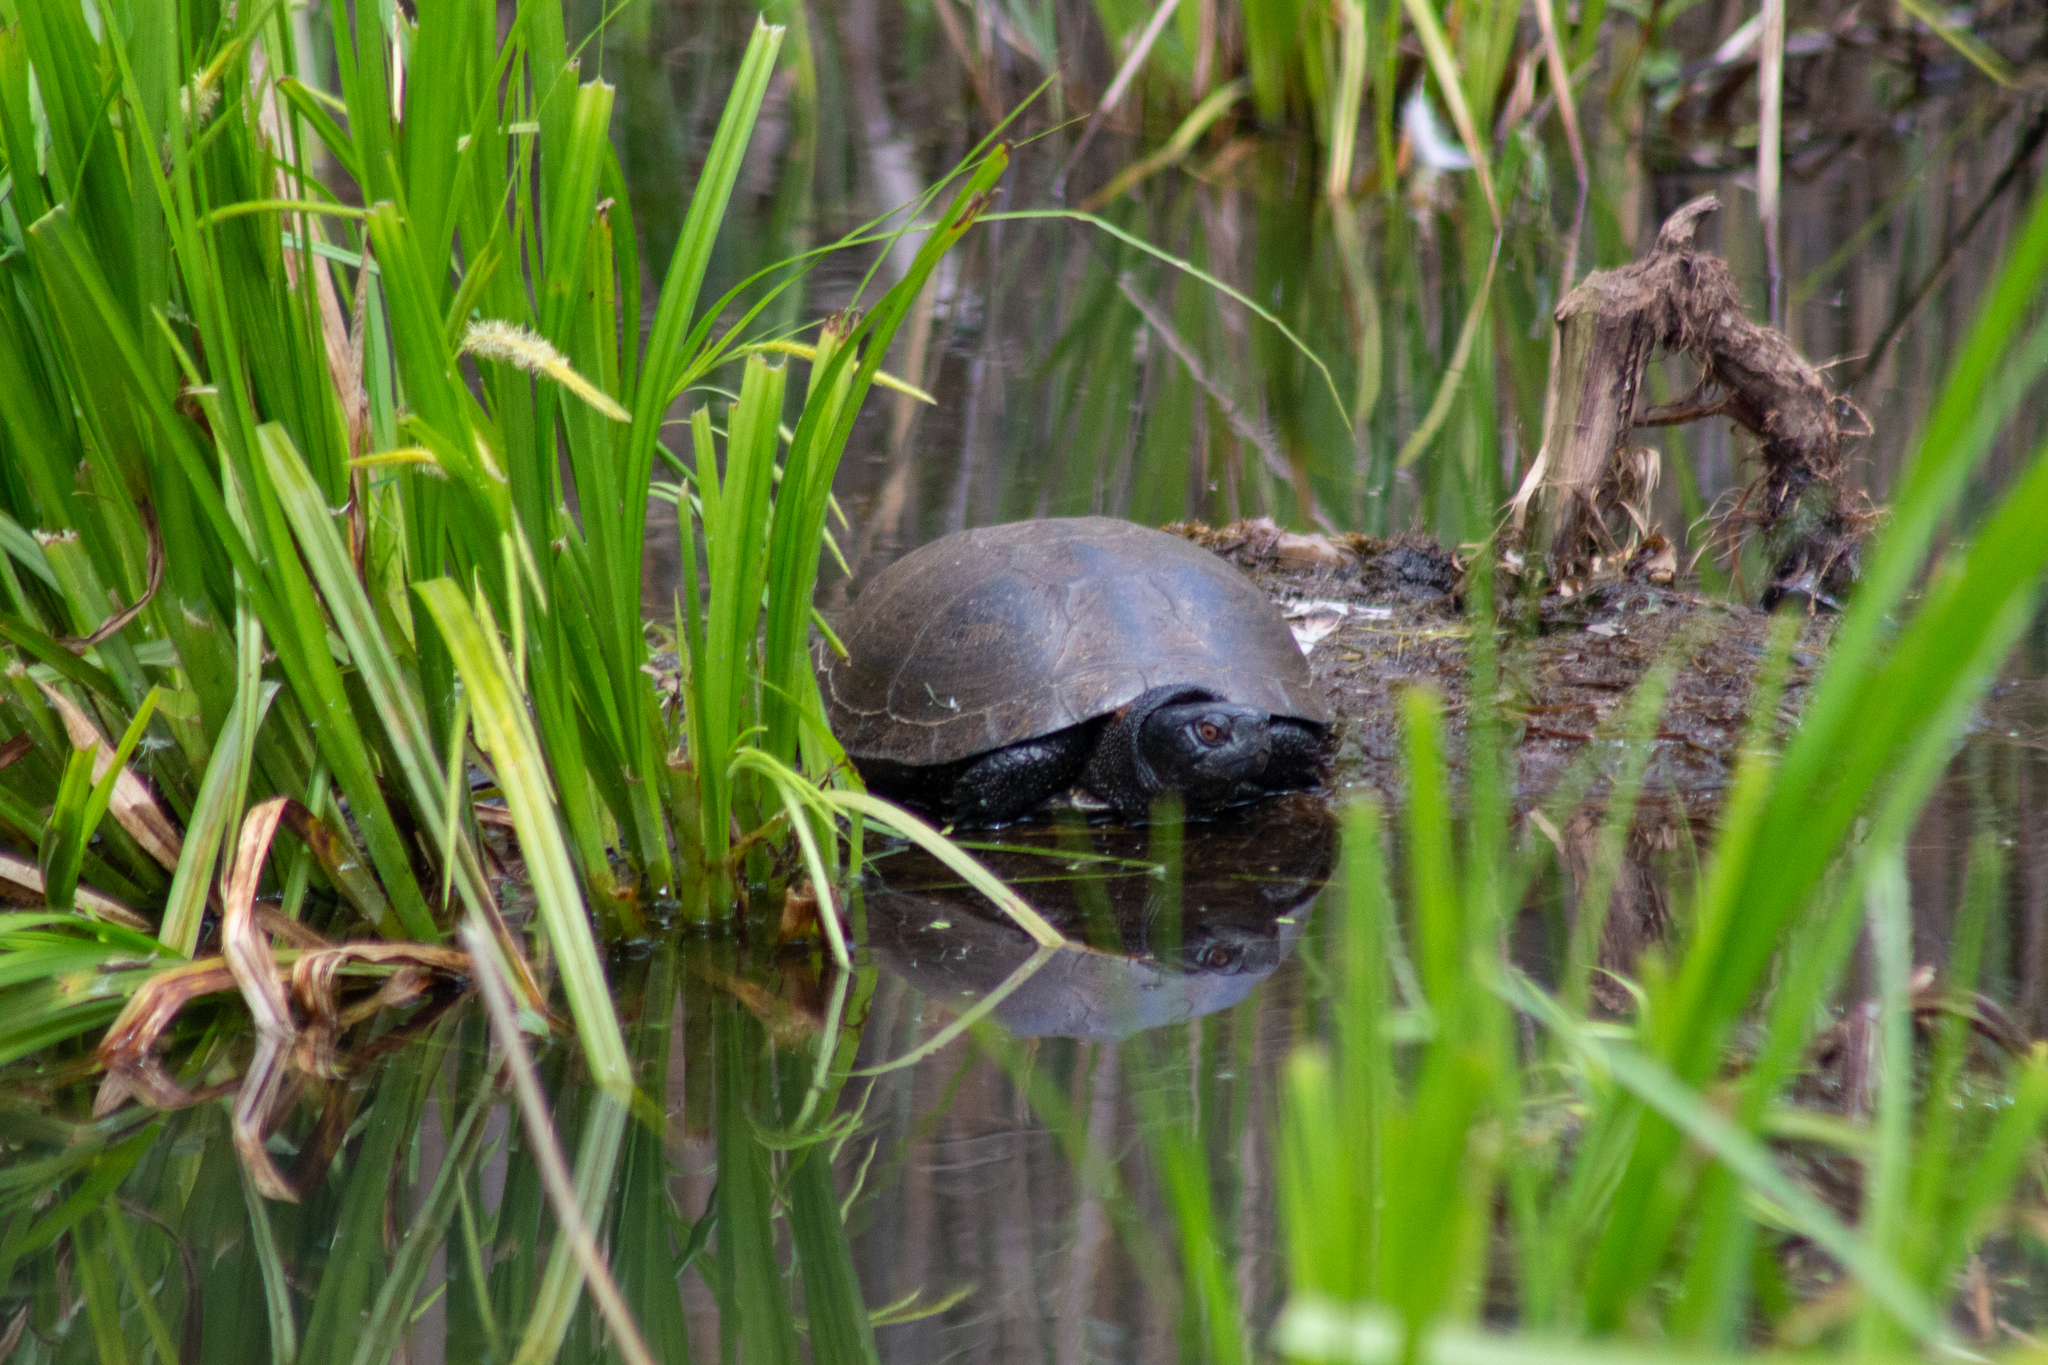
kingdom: Animalia
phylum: Chordata
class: Testudines
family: Emydidae
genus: Emys
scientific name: Emys orbicularis
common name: European pond turtle
